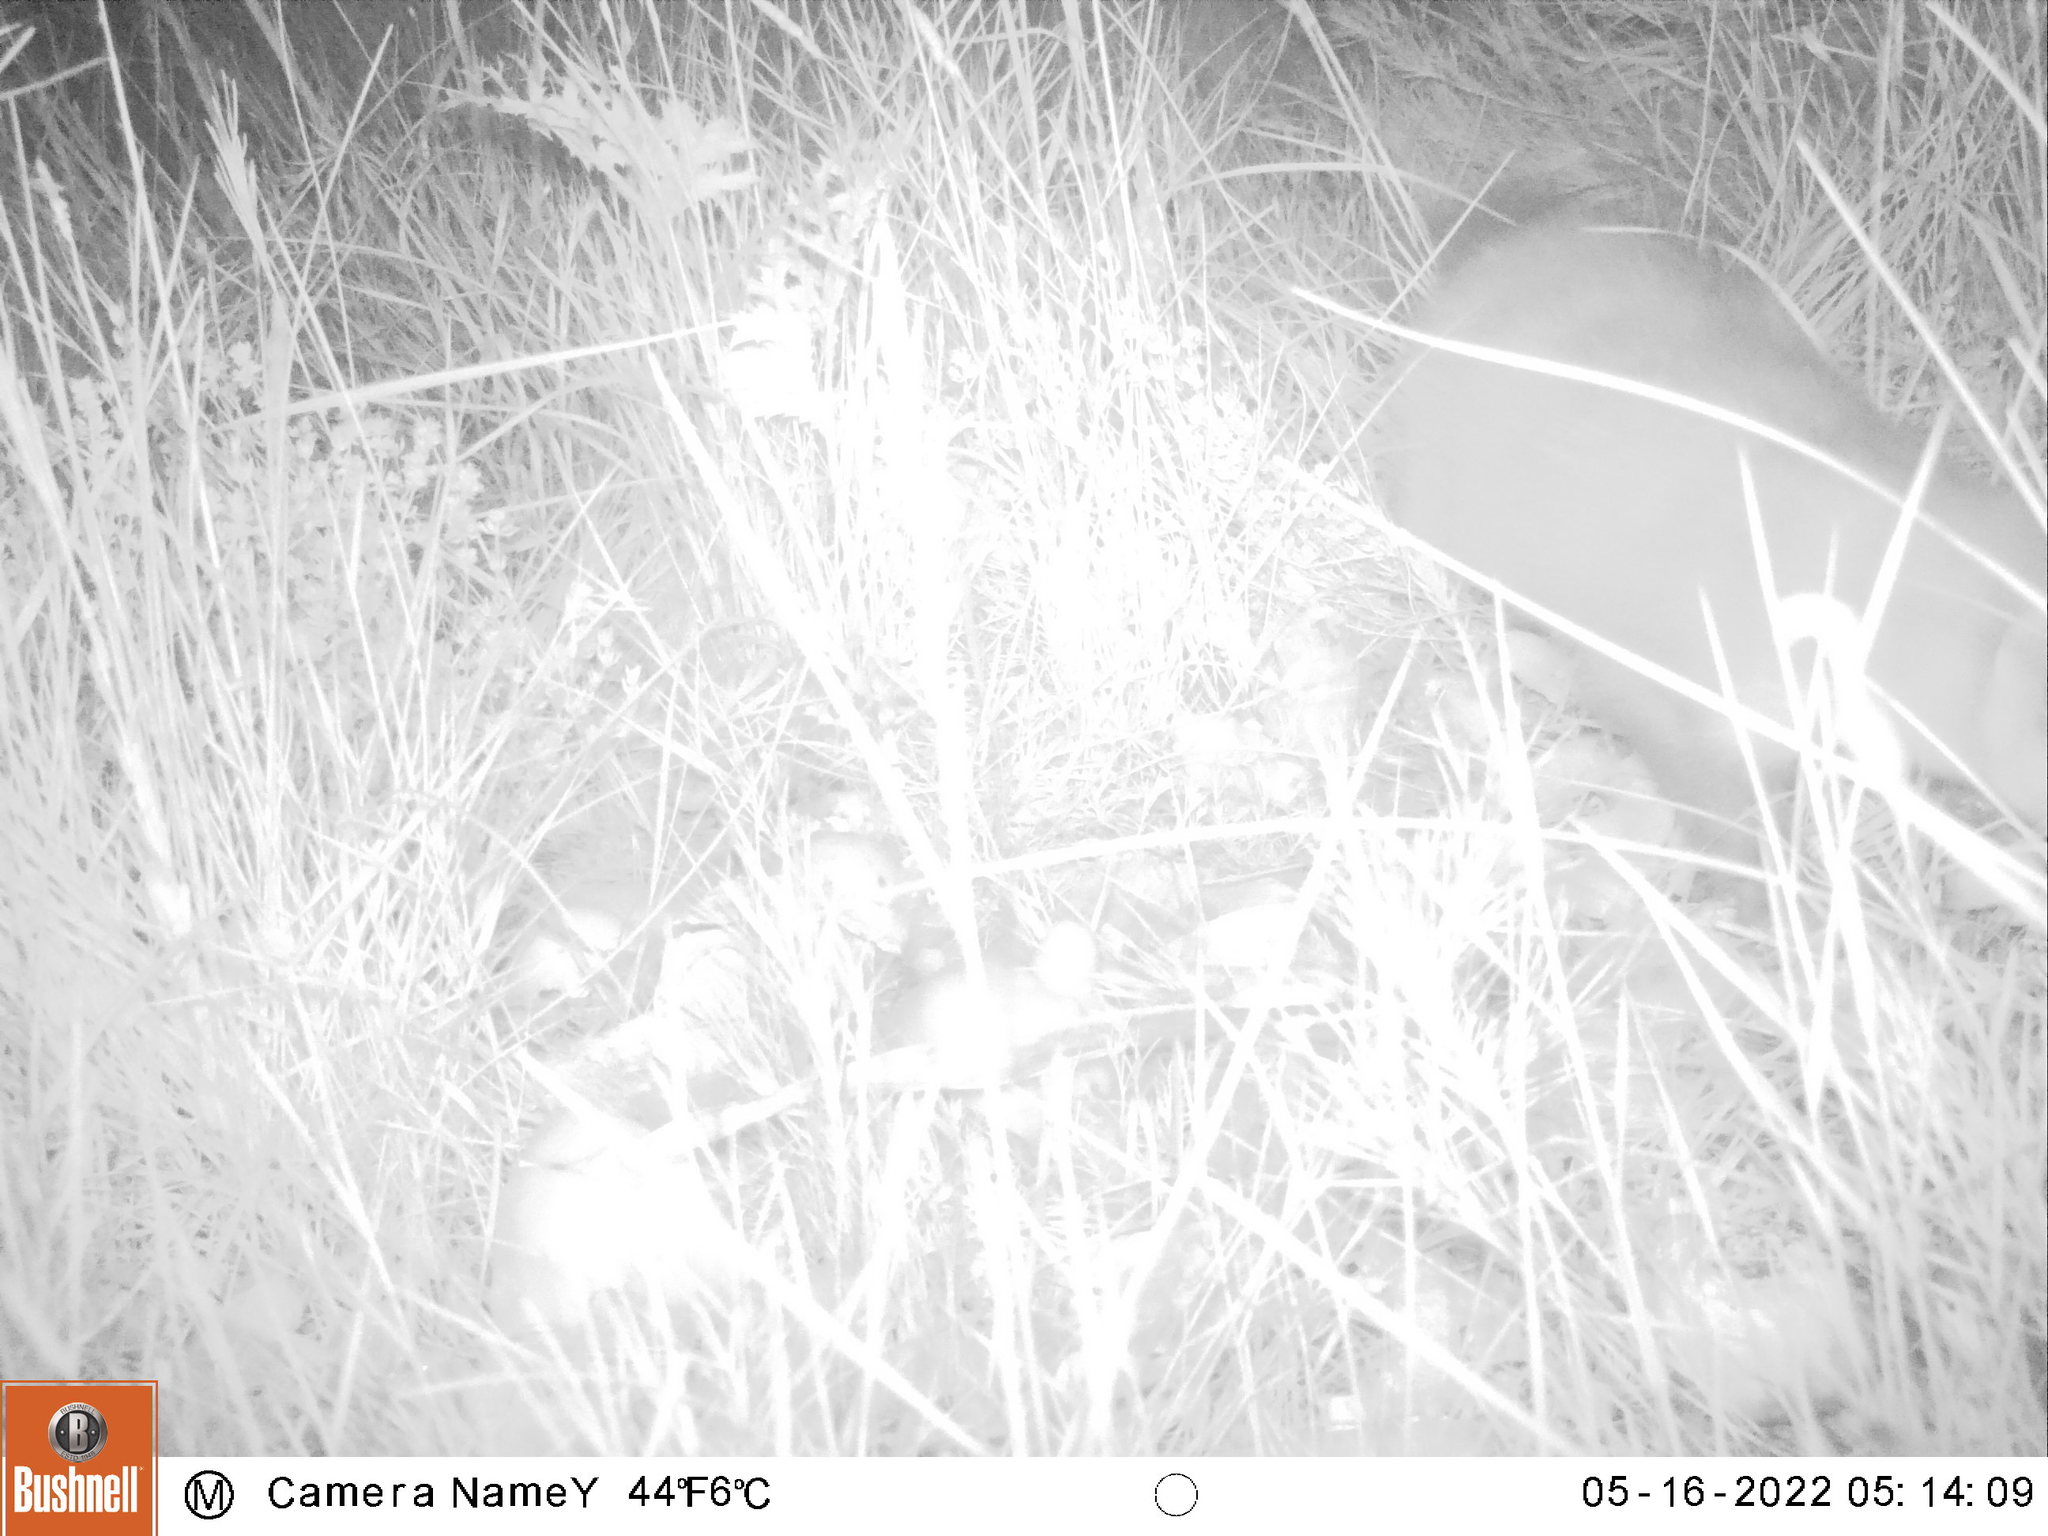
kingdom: Animalia
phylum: Chordata
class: Mammalia
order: Carnivora
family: Mustelidae
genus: Martes
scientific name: Martes foina
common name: Beech marten
